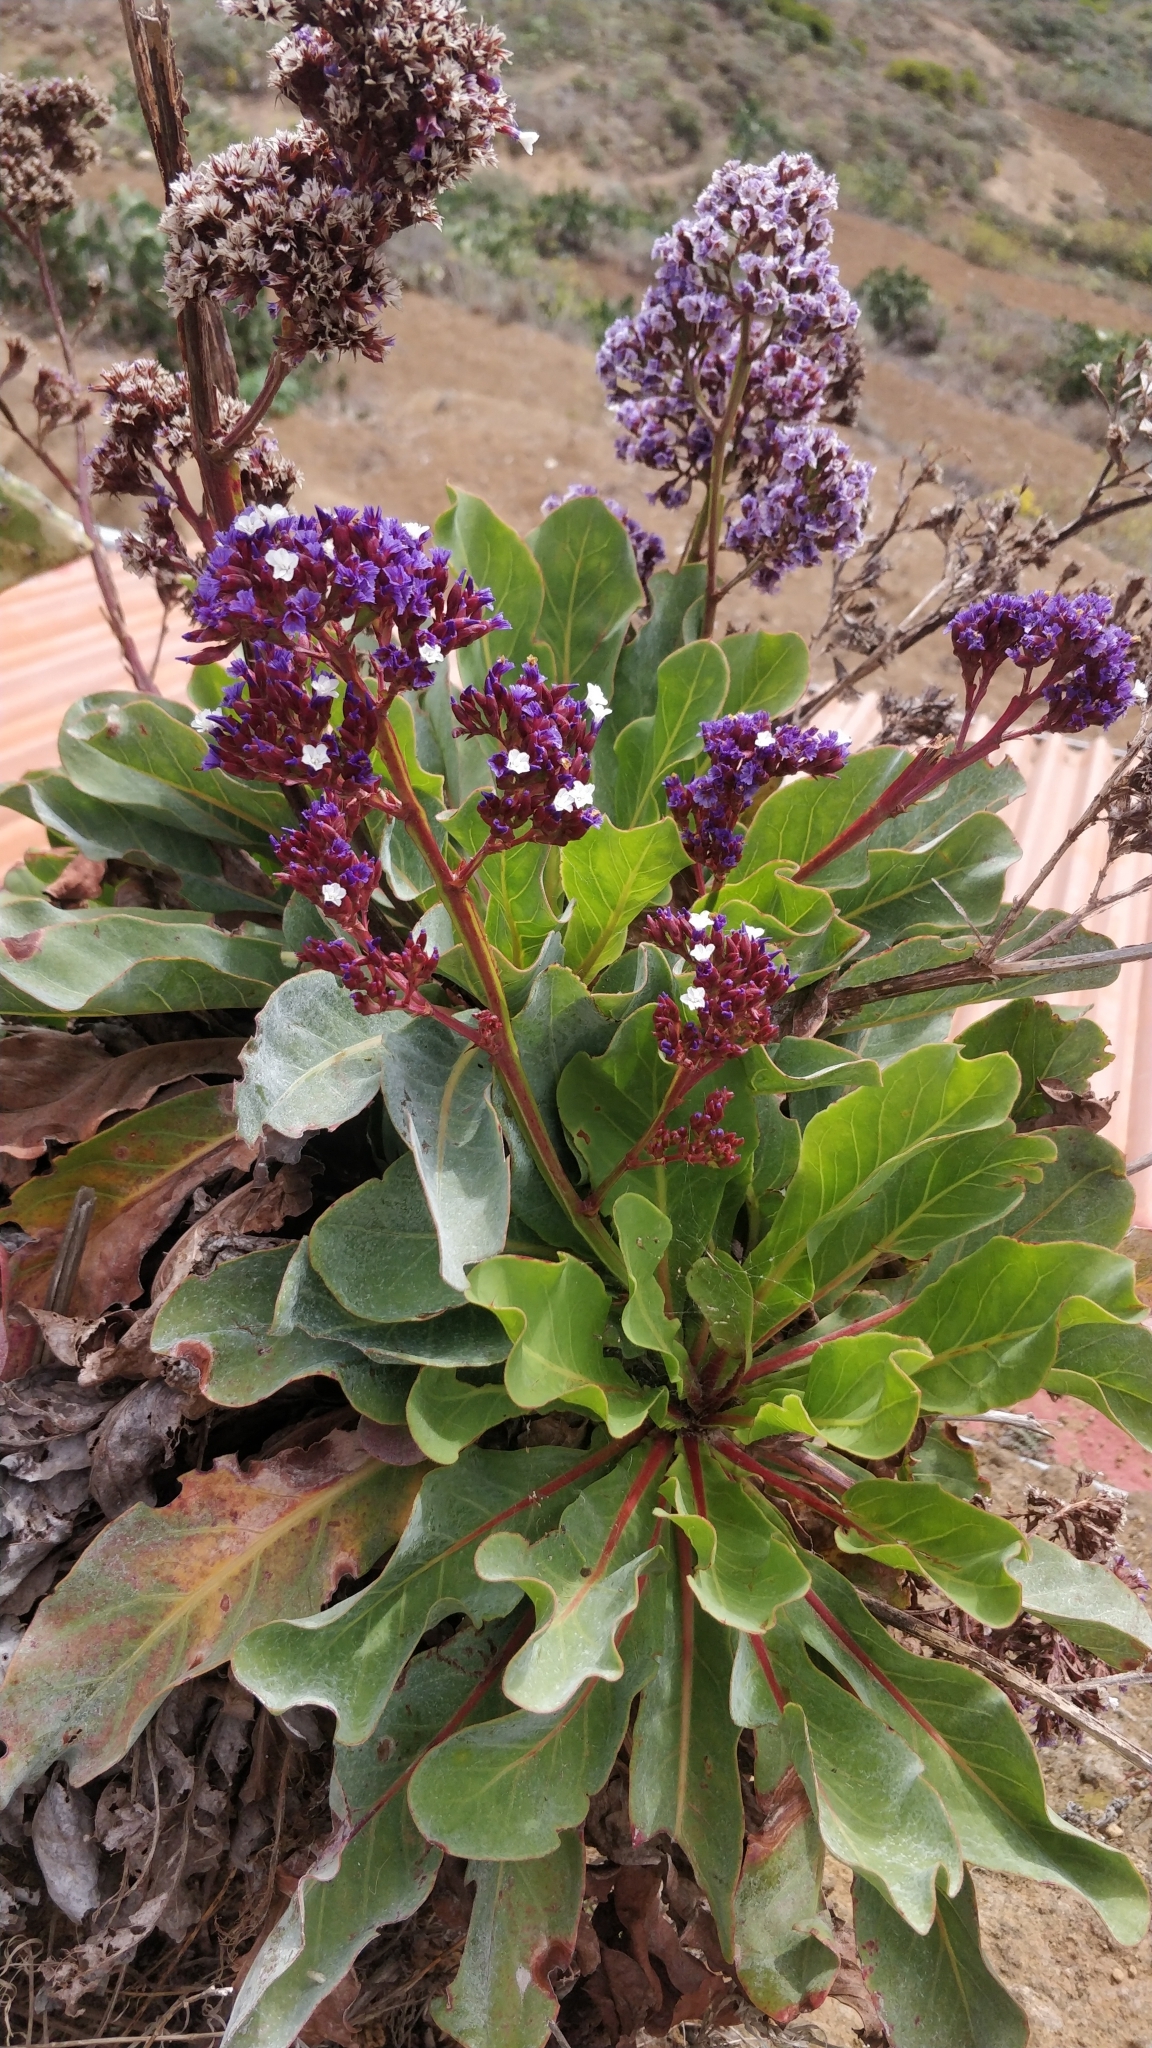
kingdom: Plantae
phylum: Tracheophyta
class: Magnoliopsida
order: Caryophyllales
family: Plumbaginaceae
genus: Limonium
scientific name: Limonium macrophyllum
